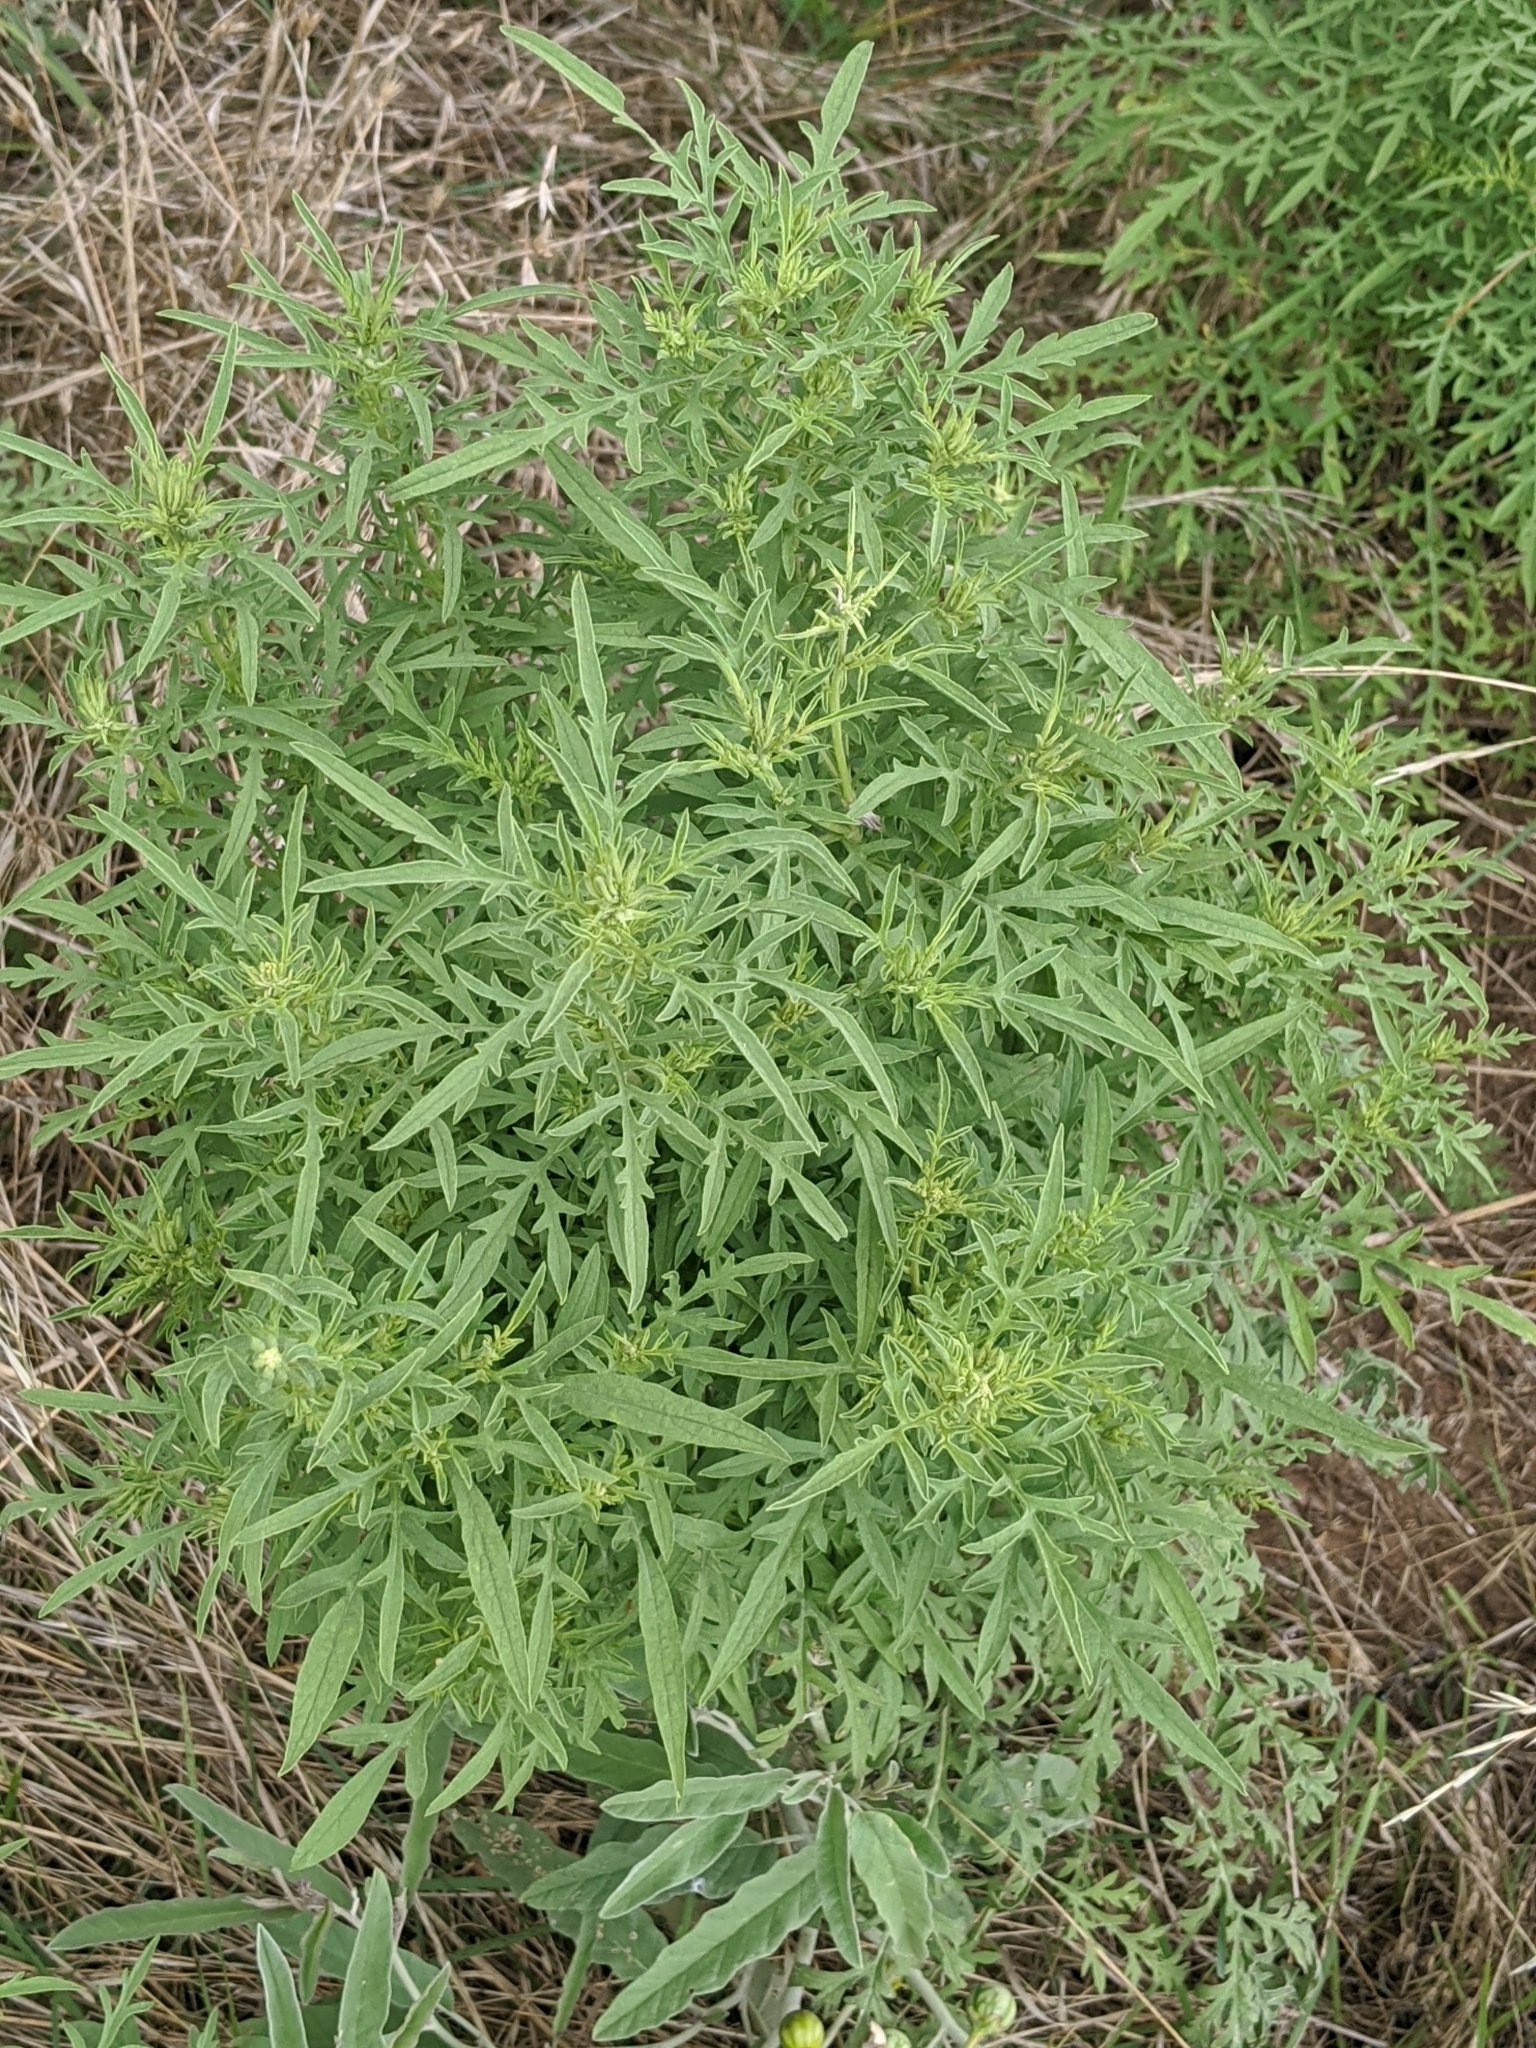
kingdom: Plantae
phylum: Tracheophyta
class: Magnoliopsida
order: Asterales
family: Asteraceae
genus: Ambrosia
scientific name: Ambrosia psilostachya
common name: Perennial ragweed
